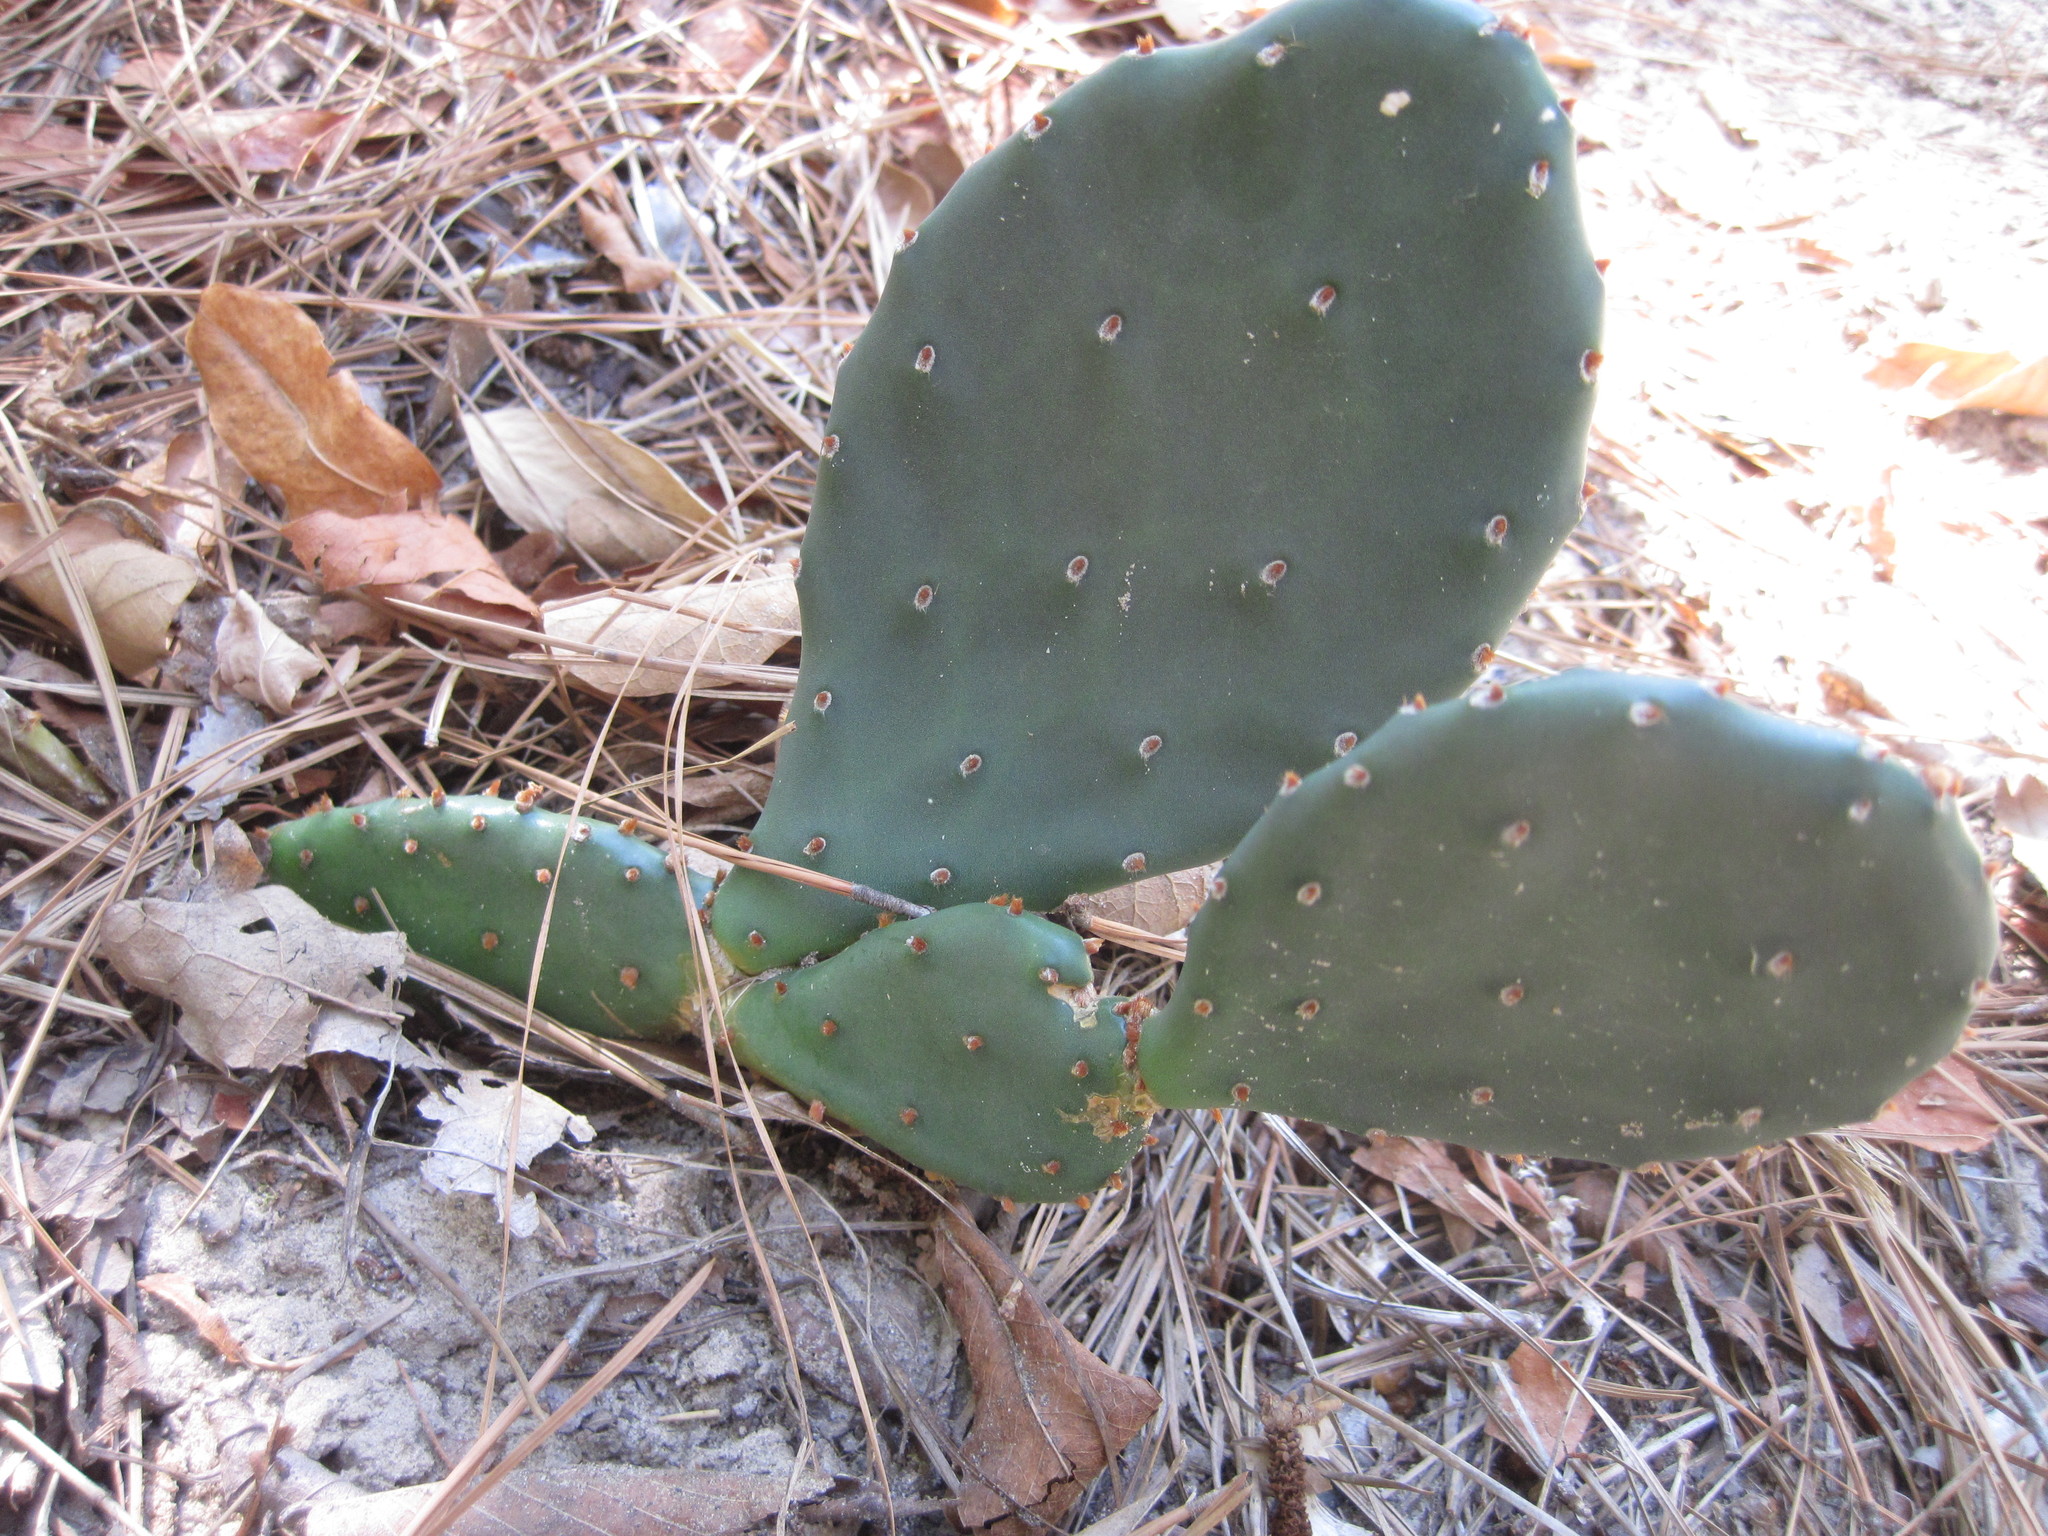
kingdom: Plantae
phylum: Tracheophyta
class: Magnoliopsida
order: Caryophyllales
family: Cactaceae
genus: Opuntia
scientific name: Opuntia macrorhiza
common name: Grassland pricklypear
